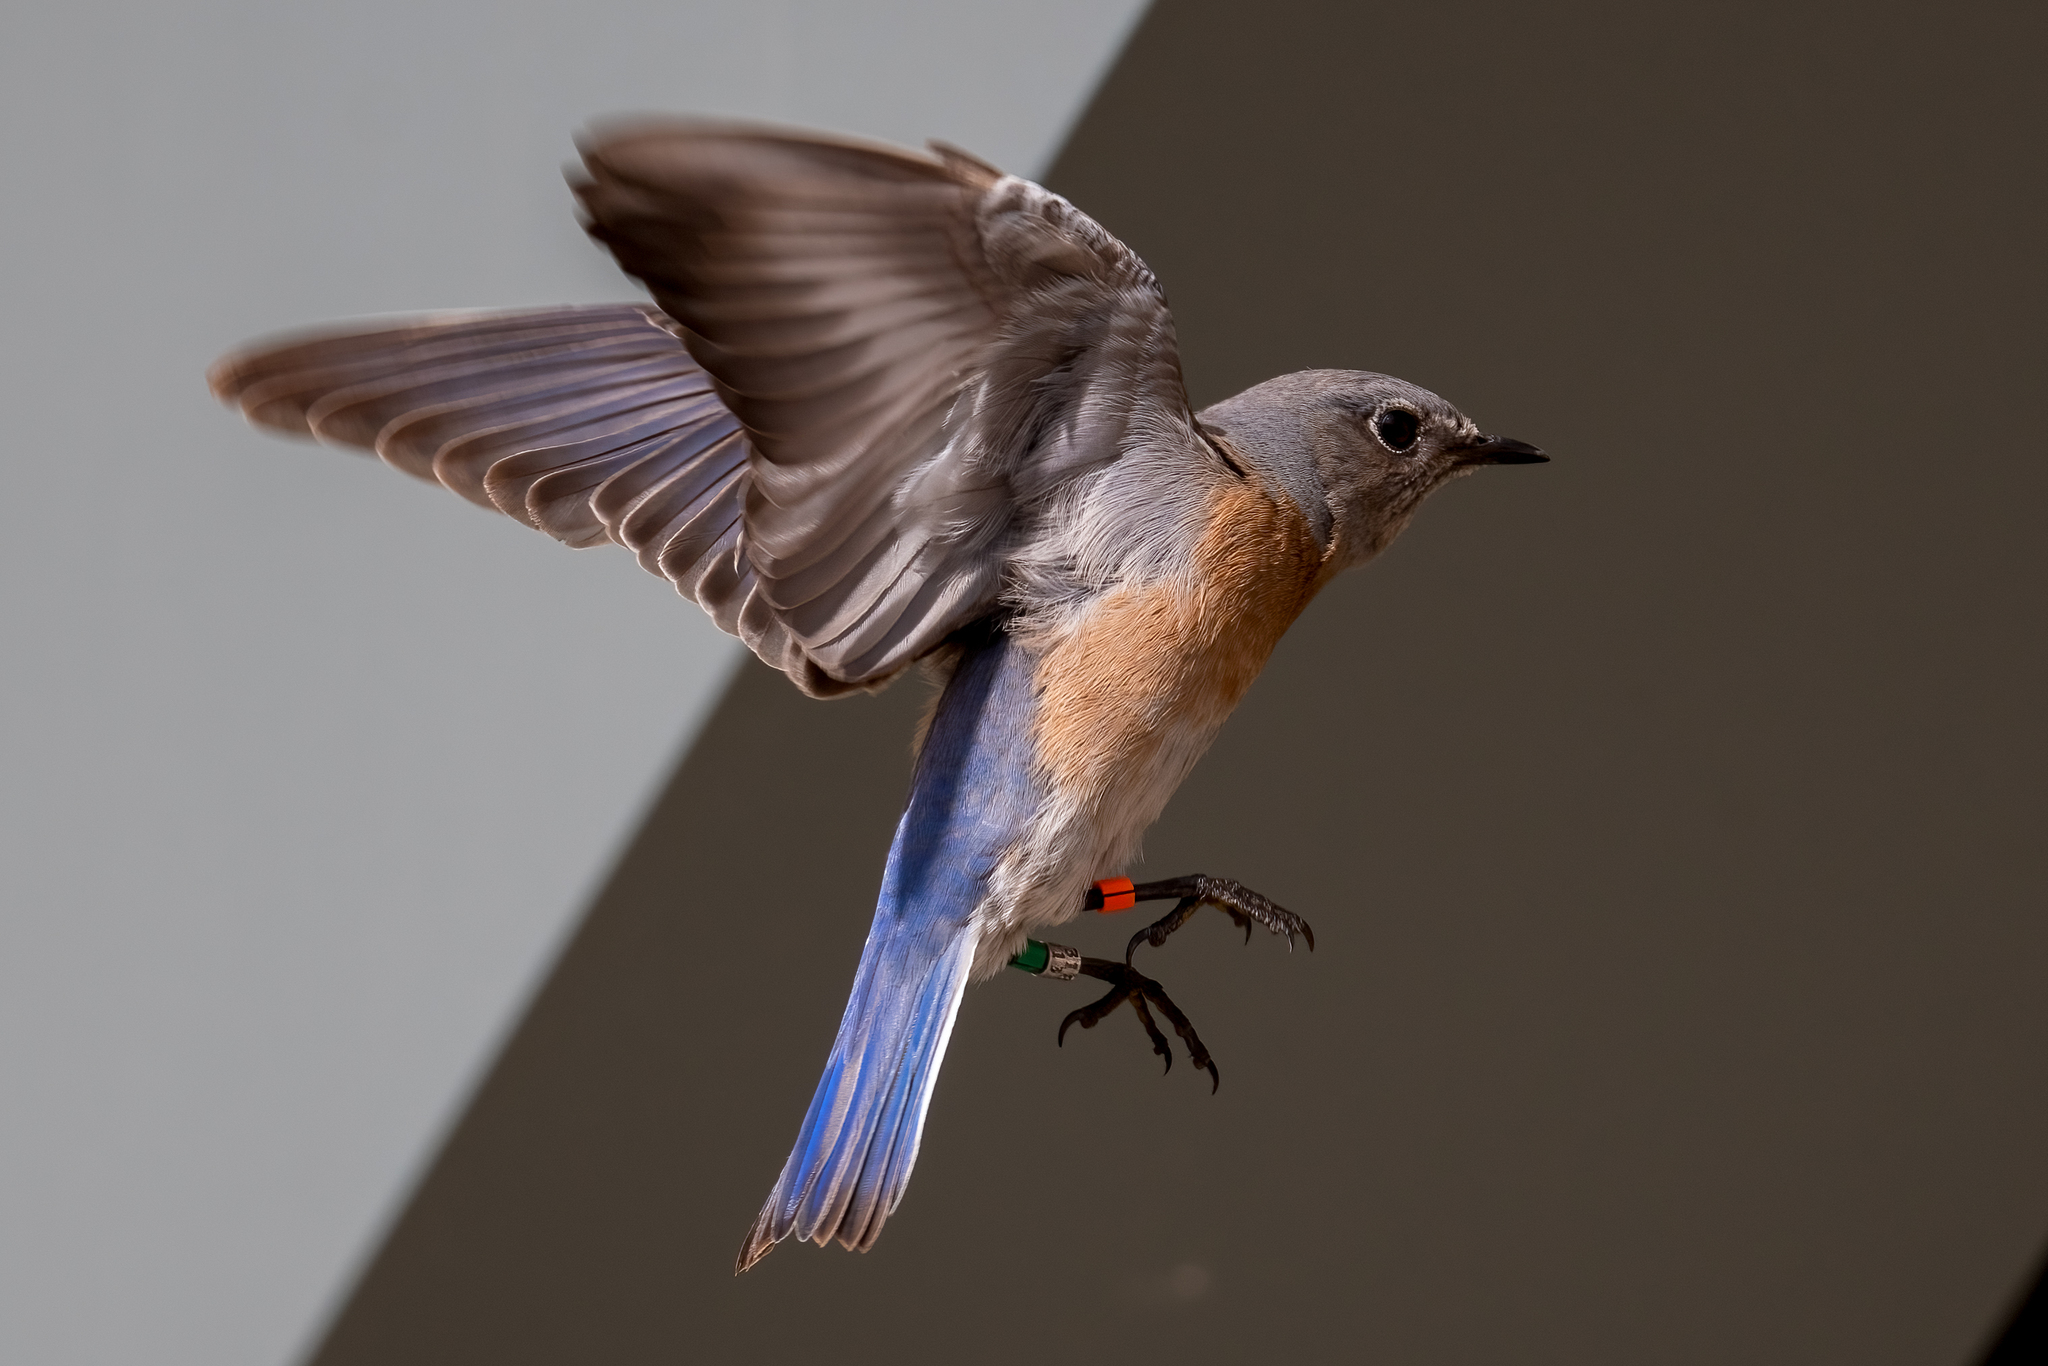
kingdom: Animalia
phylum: Chordata
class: Aves
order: Passeriformes
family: Turdidae
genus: Sialia
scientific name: Sialia mexicana
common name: Western bluebird
